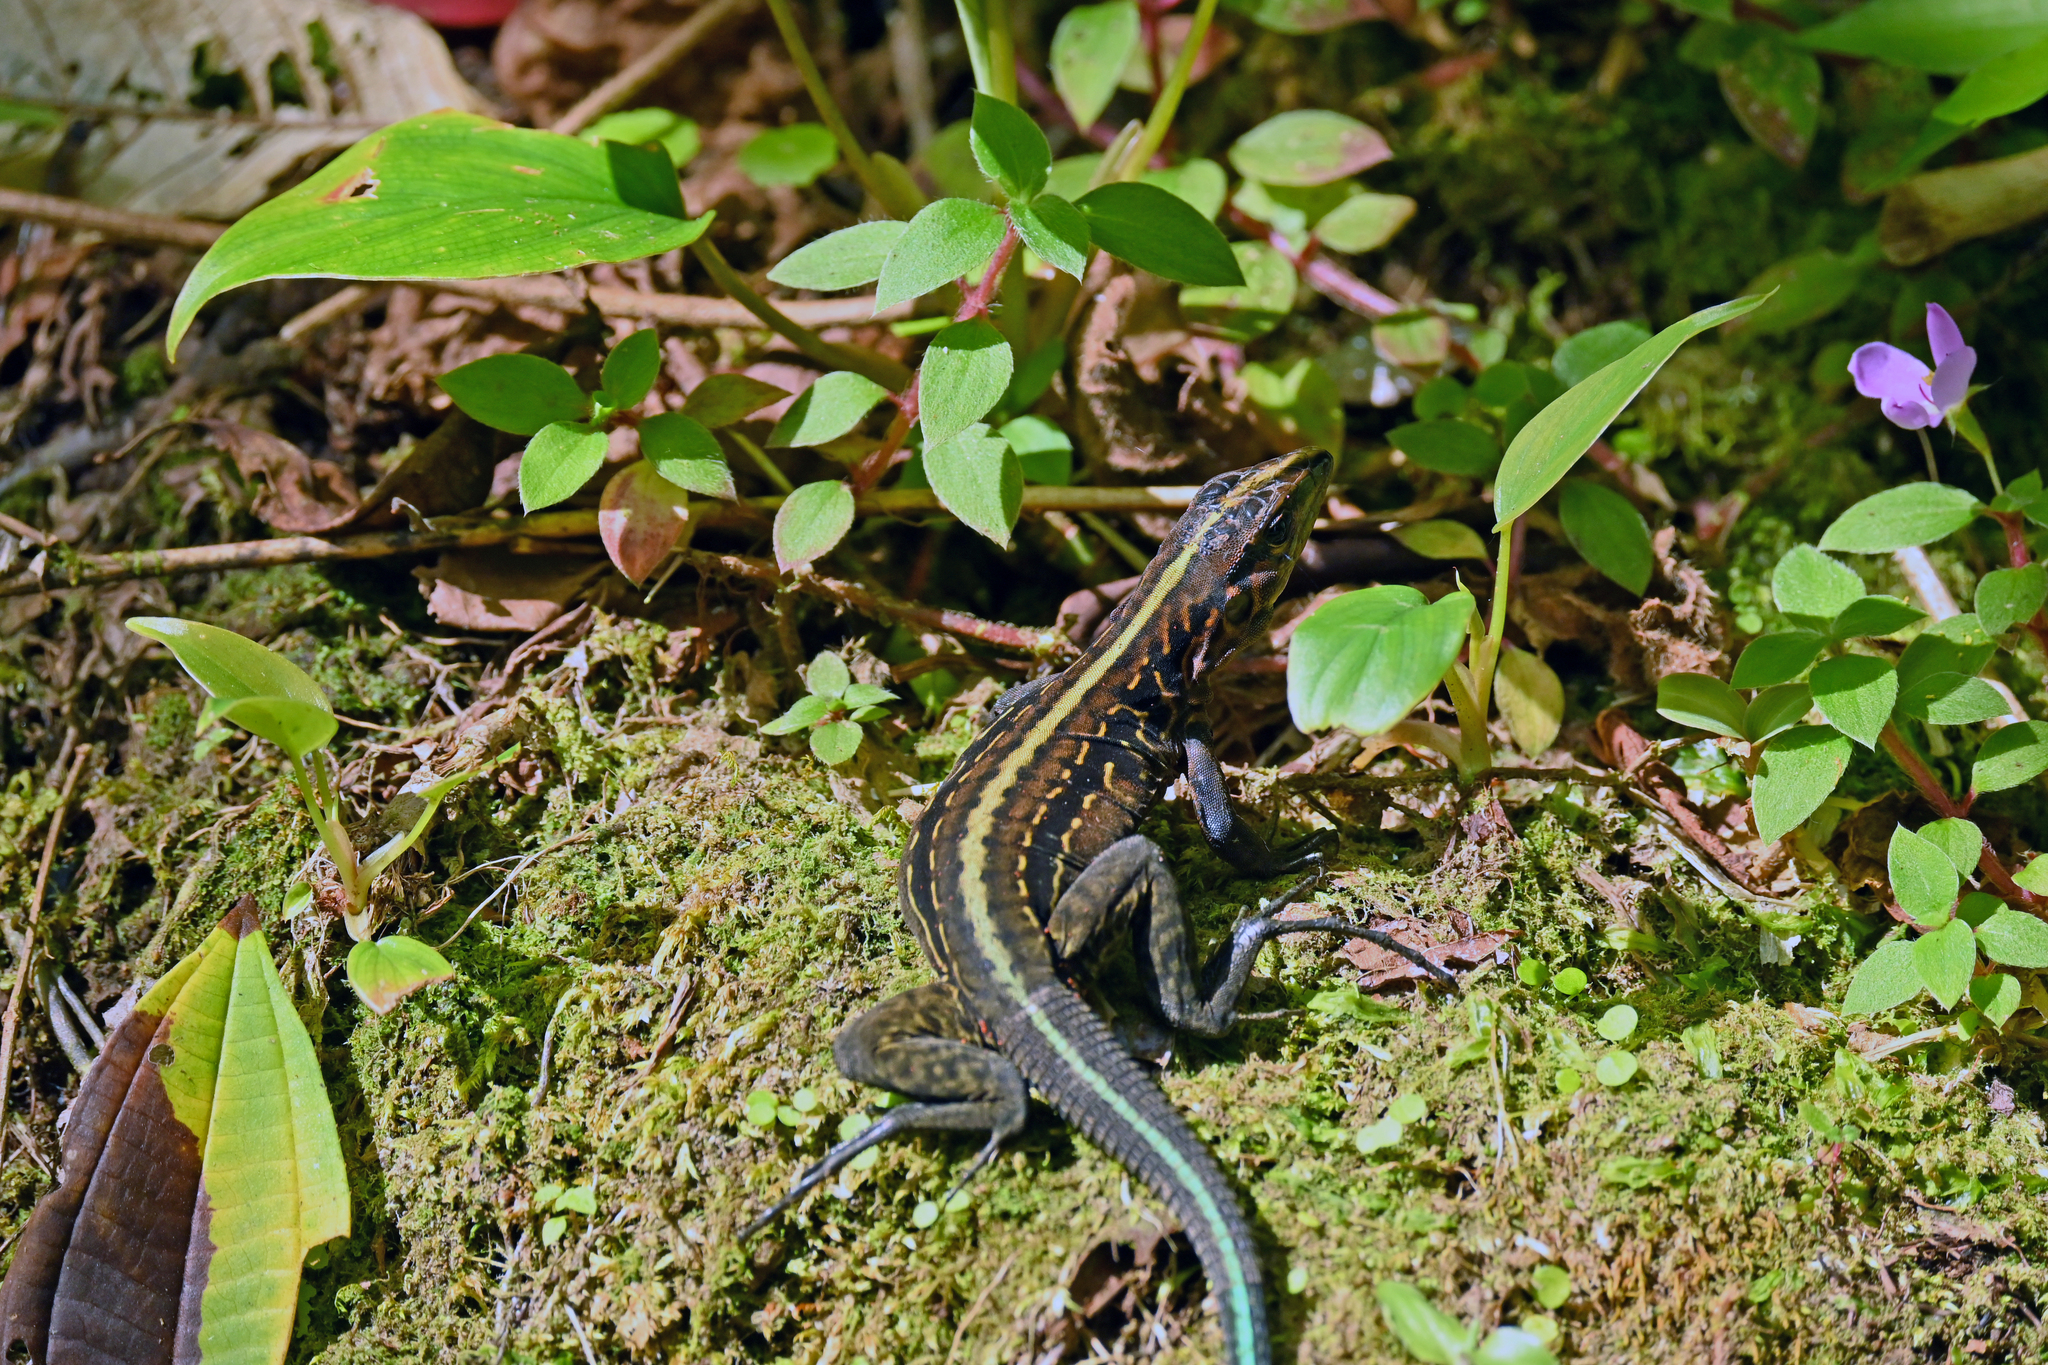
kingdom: Animalia
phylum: Chordata
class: Squamata
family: Teiidae
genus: Holcosus
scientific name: Holcosus festivus
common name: Middle american ameiva
